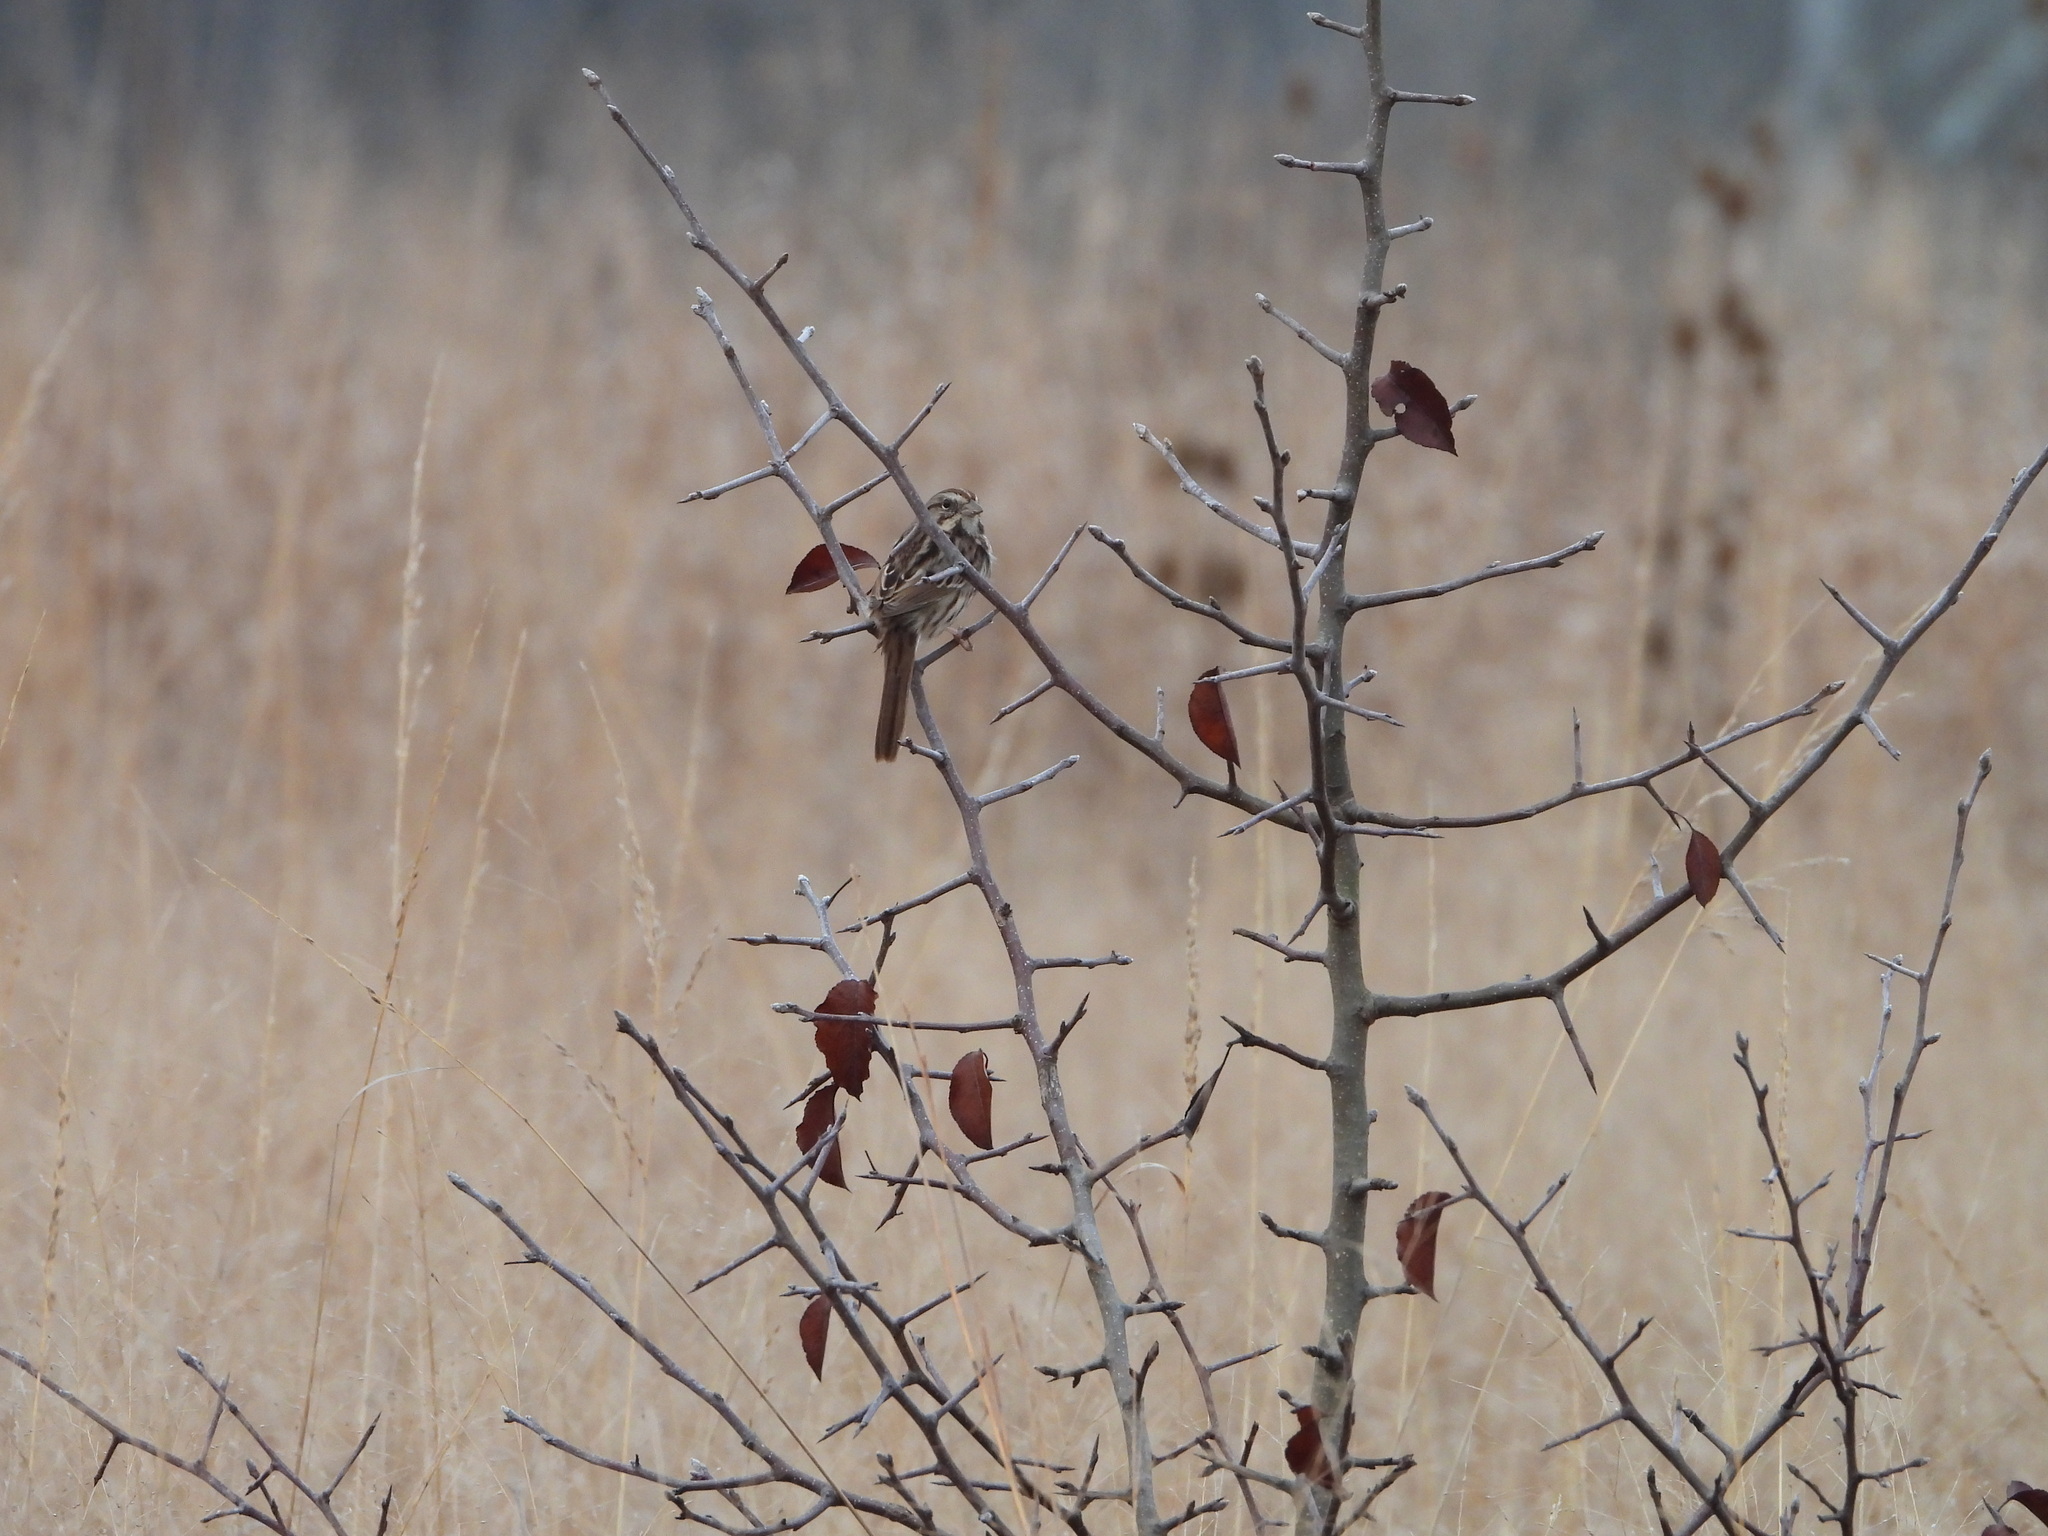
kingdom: Animalia
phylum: Chordata
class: Aves
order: Passeriformes
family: Passerellidae
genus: Melospiza
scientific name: Melospiza melodia
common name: Song sparrow
